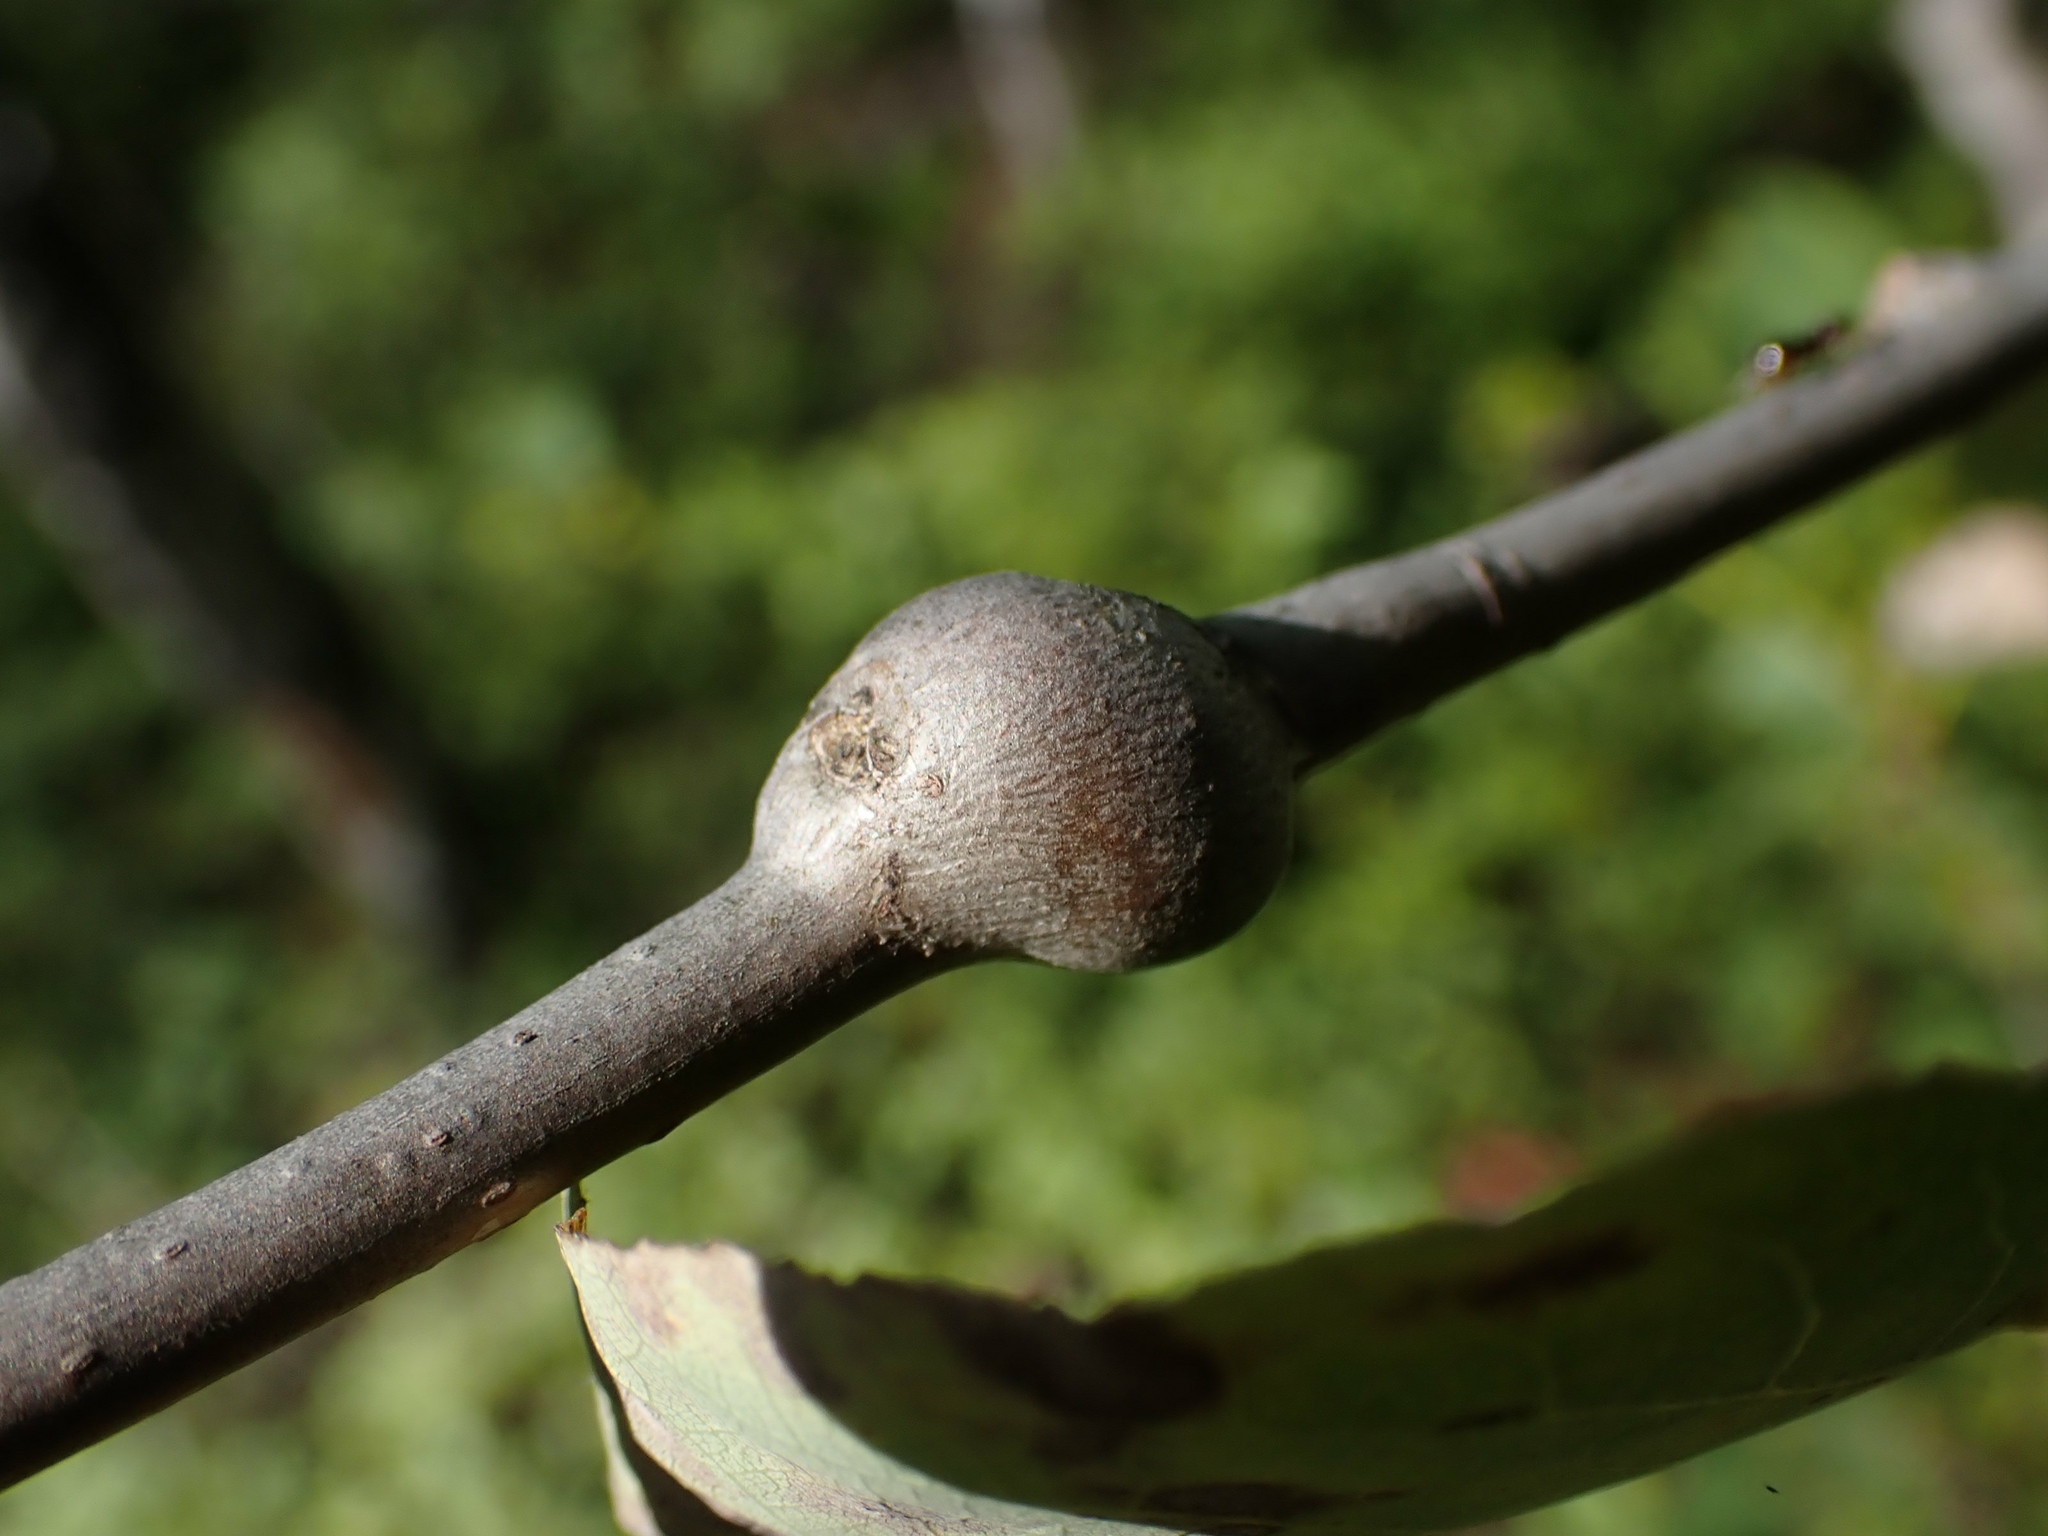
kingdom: Animalia
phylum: Arthropoda
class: Insecta
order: Diptera
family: Agromyzidae
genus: Euhexomyza
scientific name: Euhexomyza schineri
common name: Poplar twiggall fly
